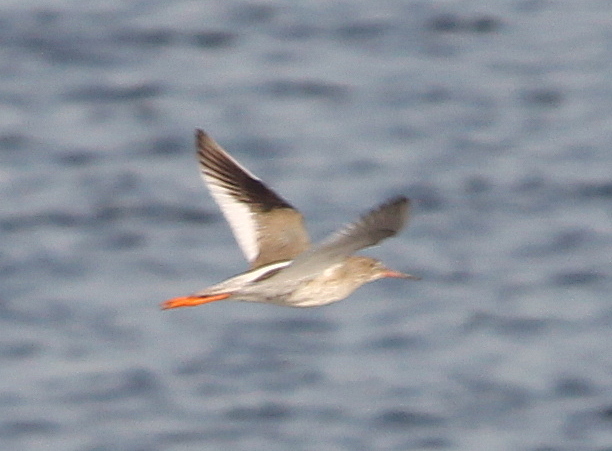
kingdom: Animalia
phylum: Chordata
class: Aves
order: Charadriiformes
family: Scolopacidae
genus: Tringa
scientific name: Tringa totanus
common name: Common redshank
